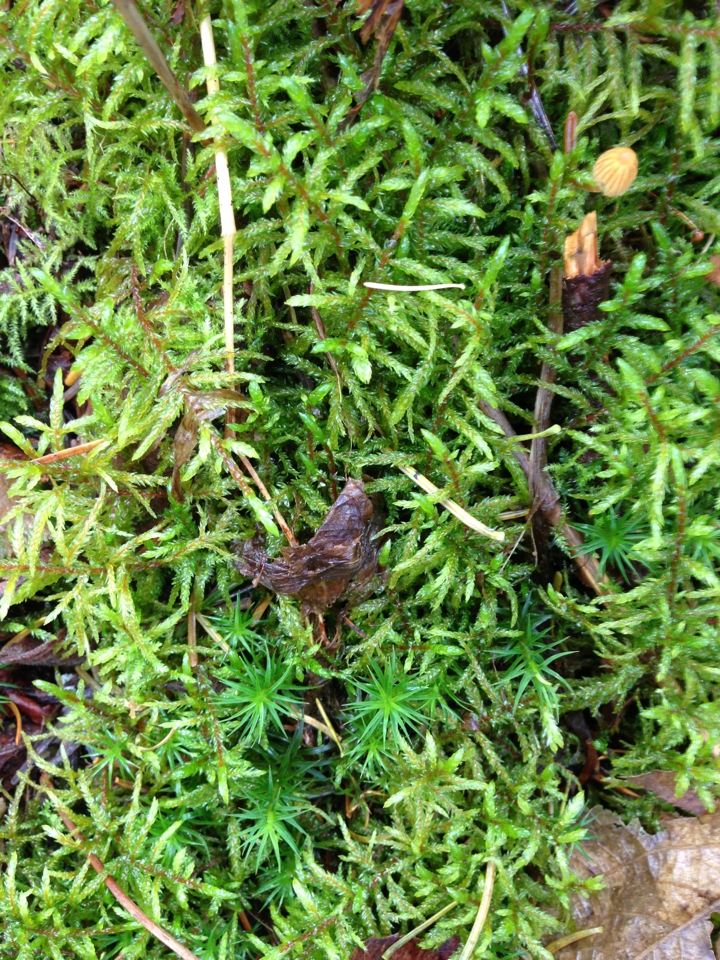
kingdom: Plantae
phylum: Bryophyta
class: Bryopsida
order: Hypnales
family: Hylocomiaceae
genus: Pleurozium
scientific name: Pleurozium schreberi
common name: Red-stemmed feather moss
